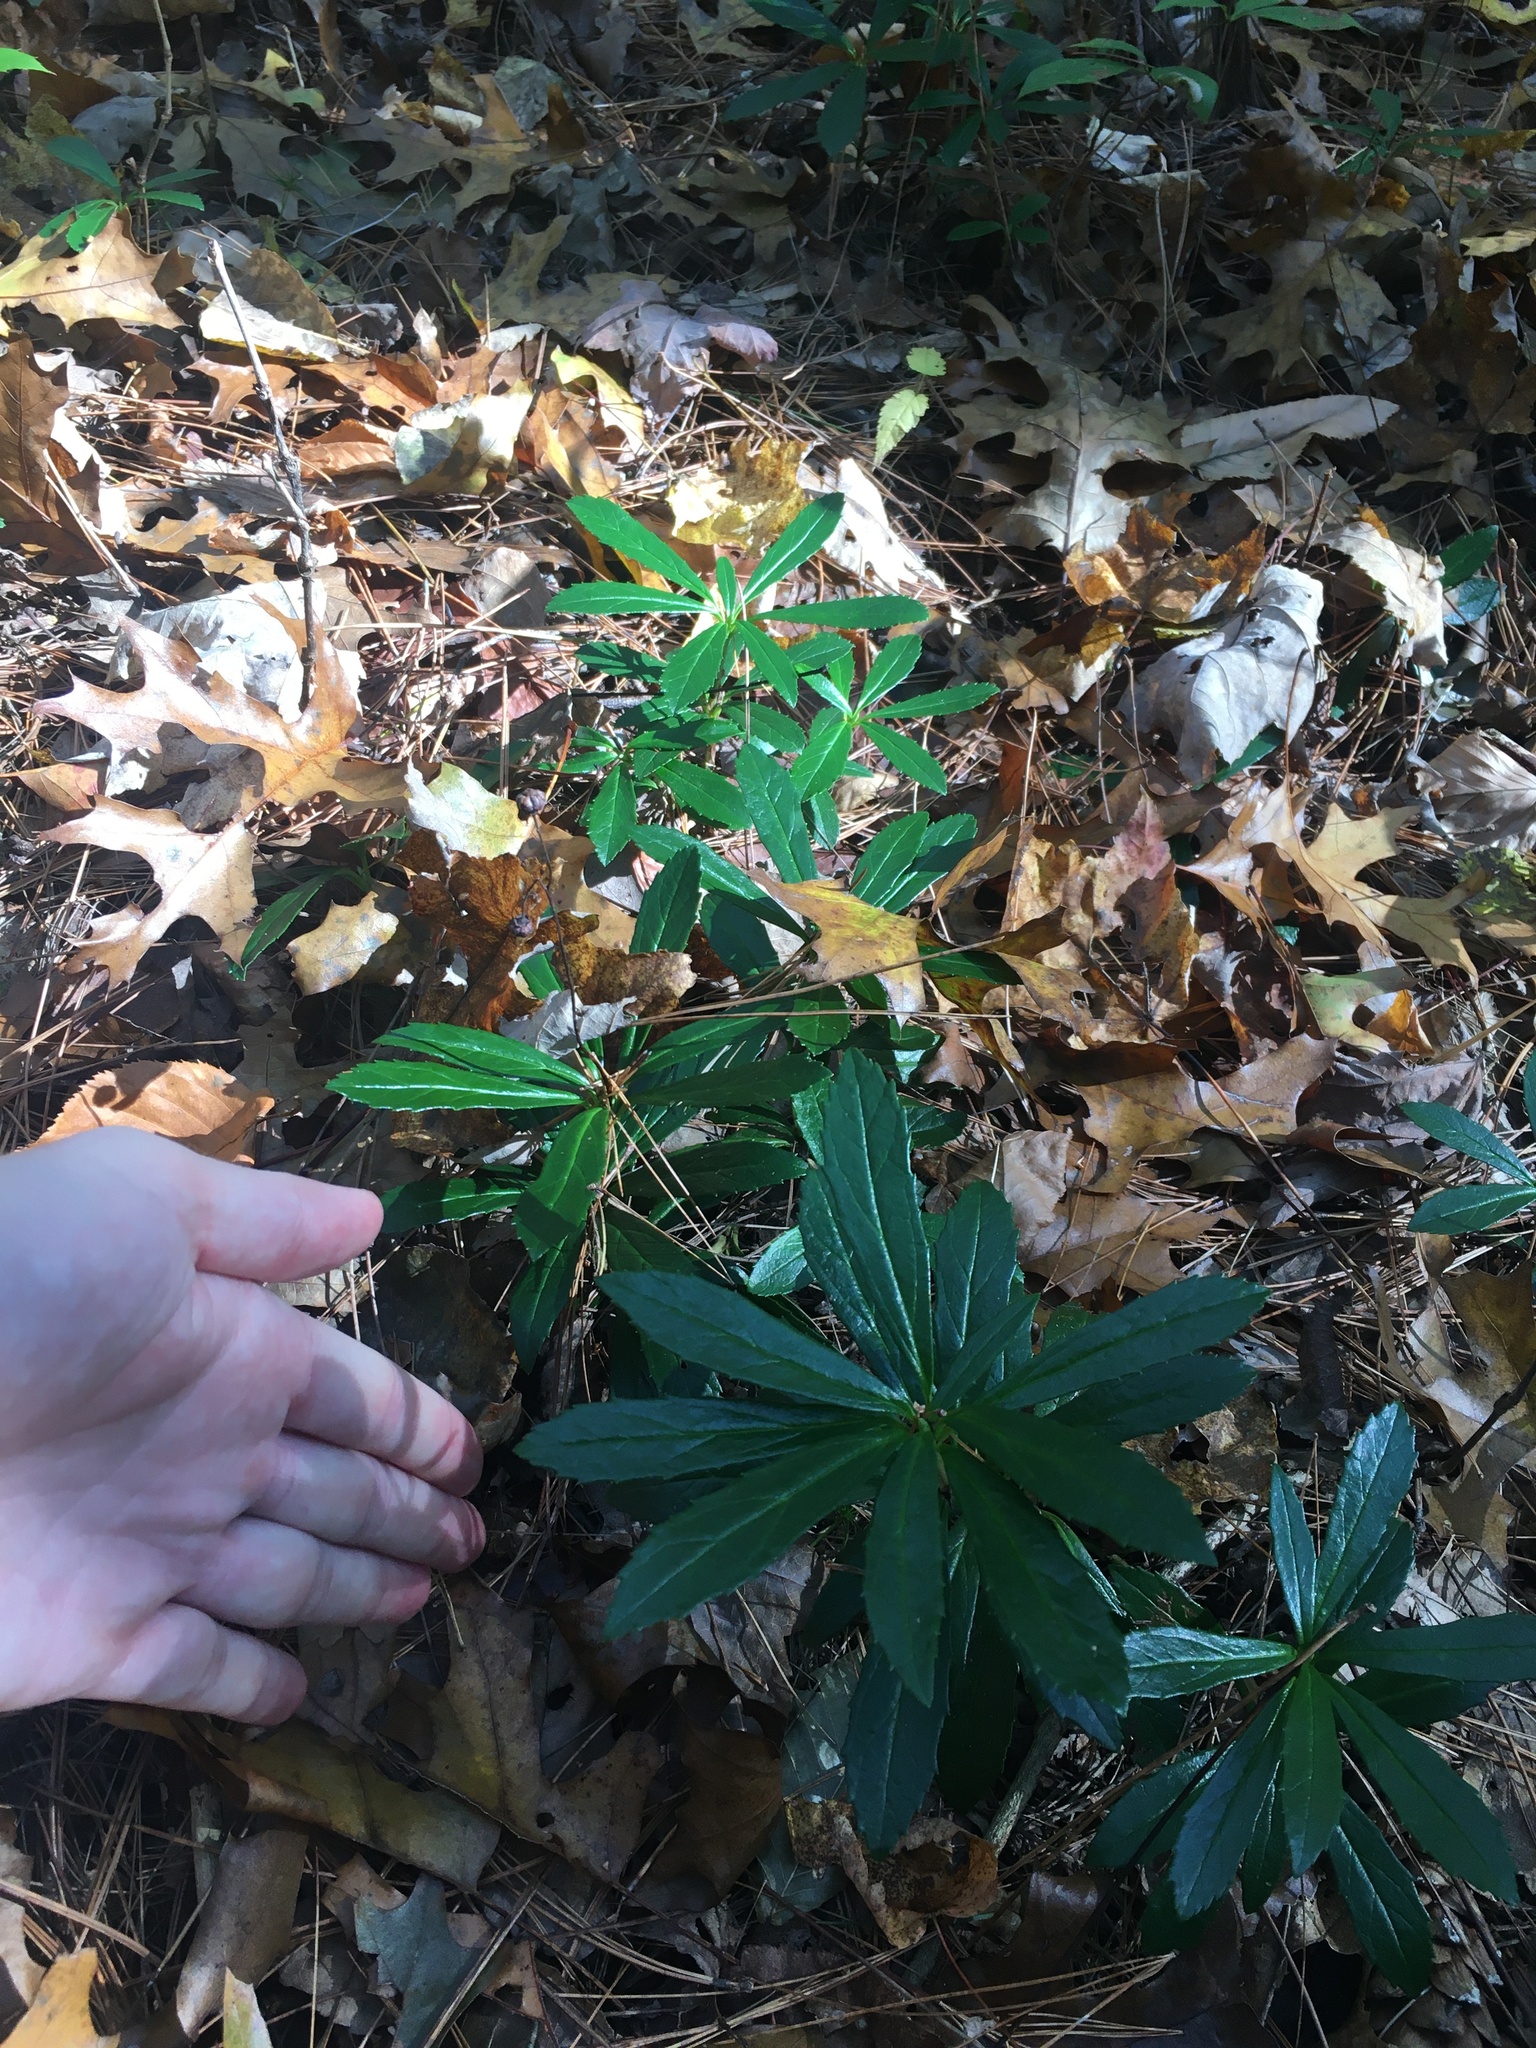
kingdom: Plantae
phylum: Tracheophyta
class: Magnoliopsida
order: Ericales
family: Ericaceae
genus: Chimaphila
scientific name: Chimaphila umbellata
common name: Pipsissewa
